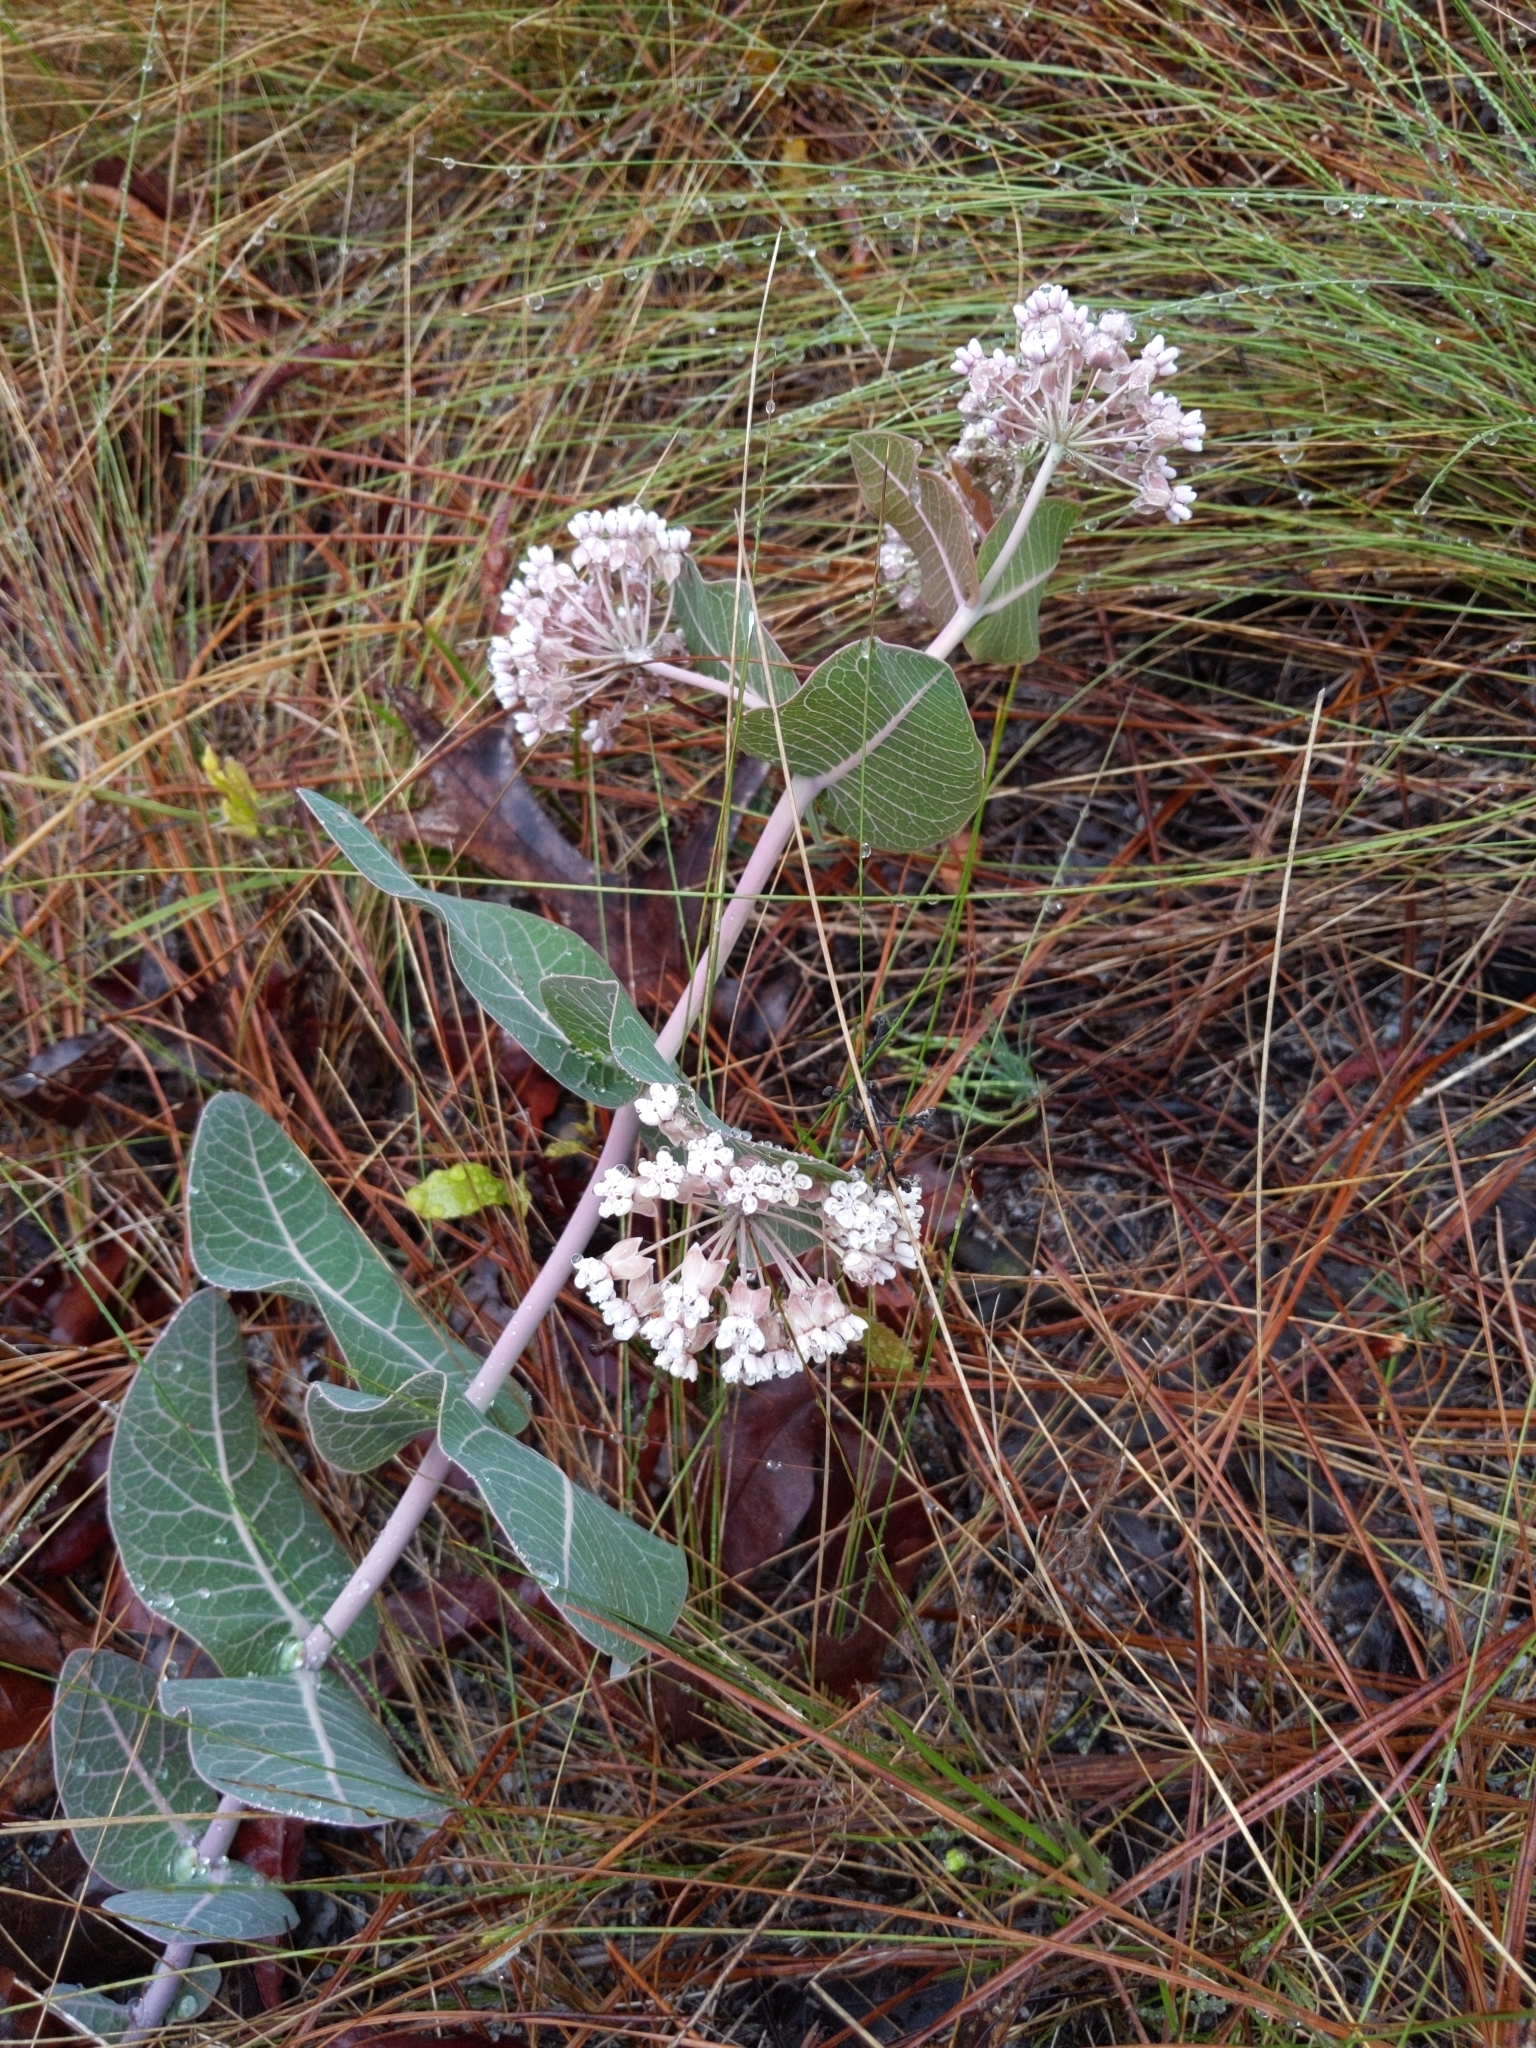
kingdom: Plantae
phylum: Tracheophyta
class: Magnoliopsida
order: Gentianales
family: Apocynaceae
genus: Asclepias
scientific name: Asclepias humistrata
